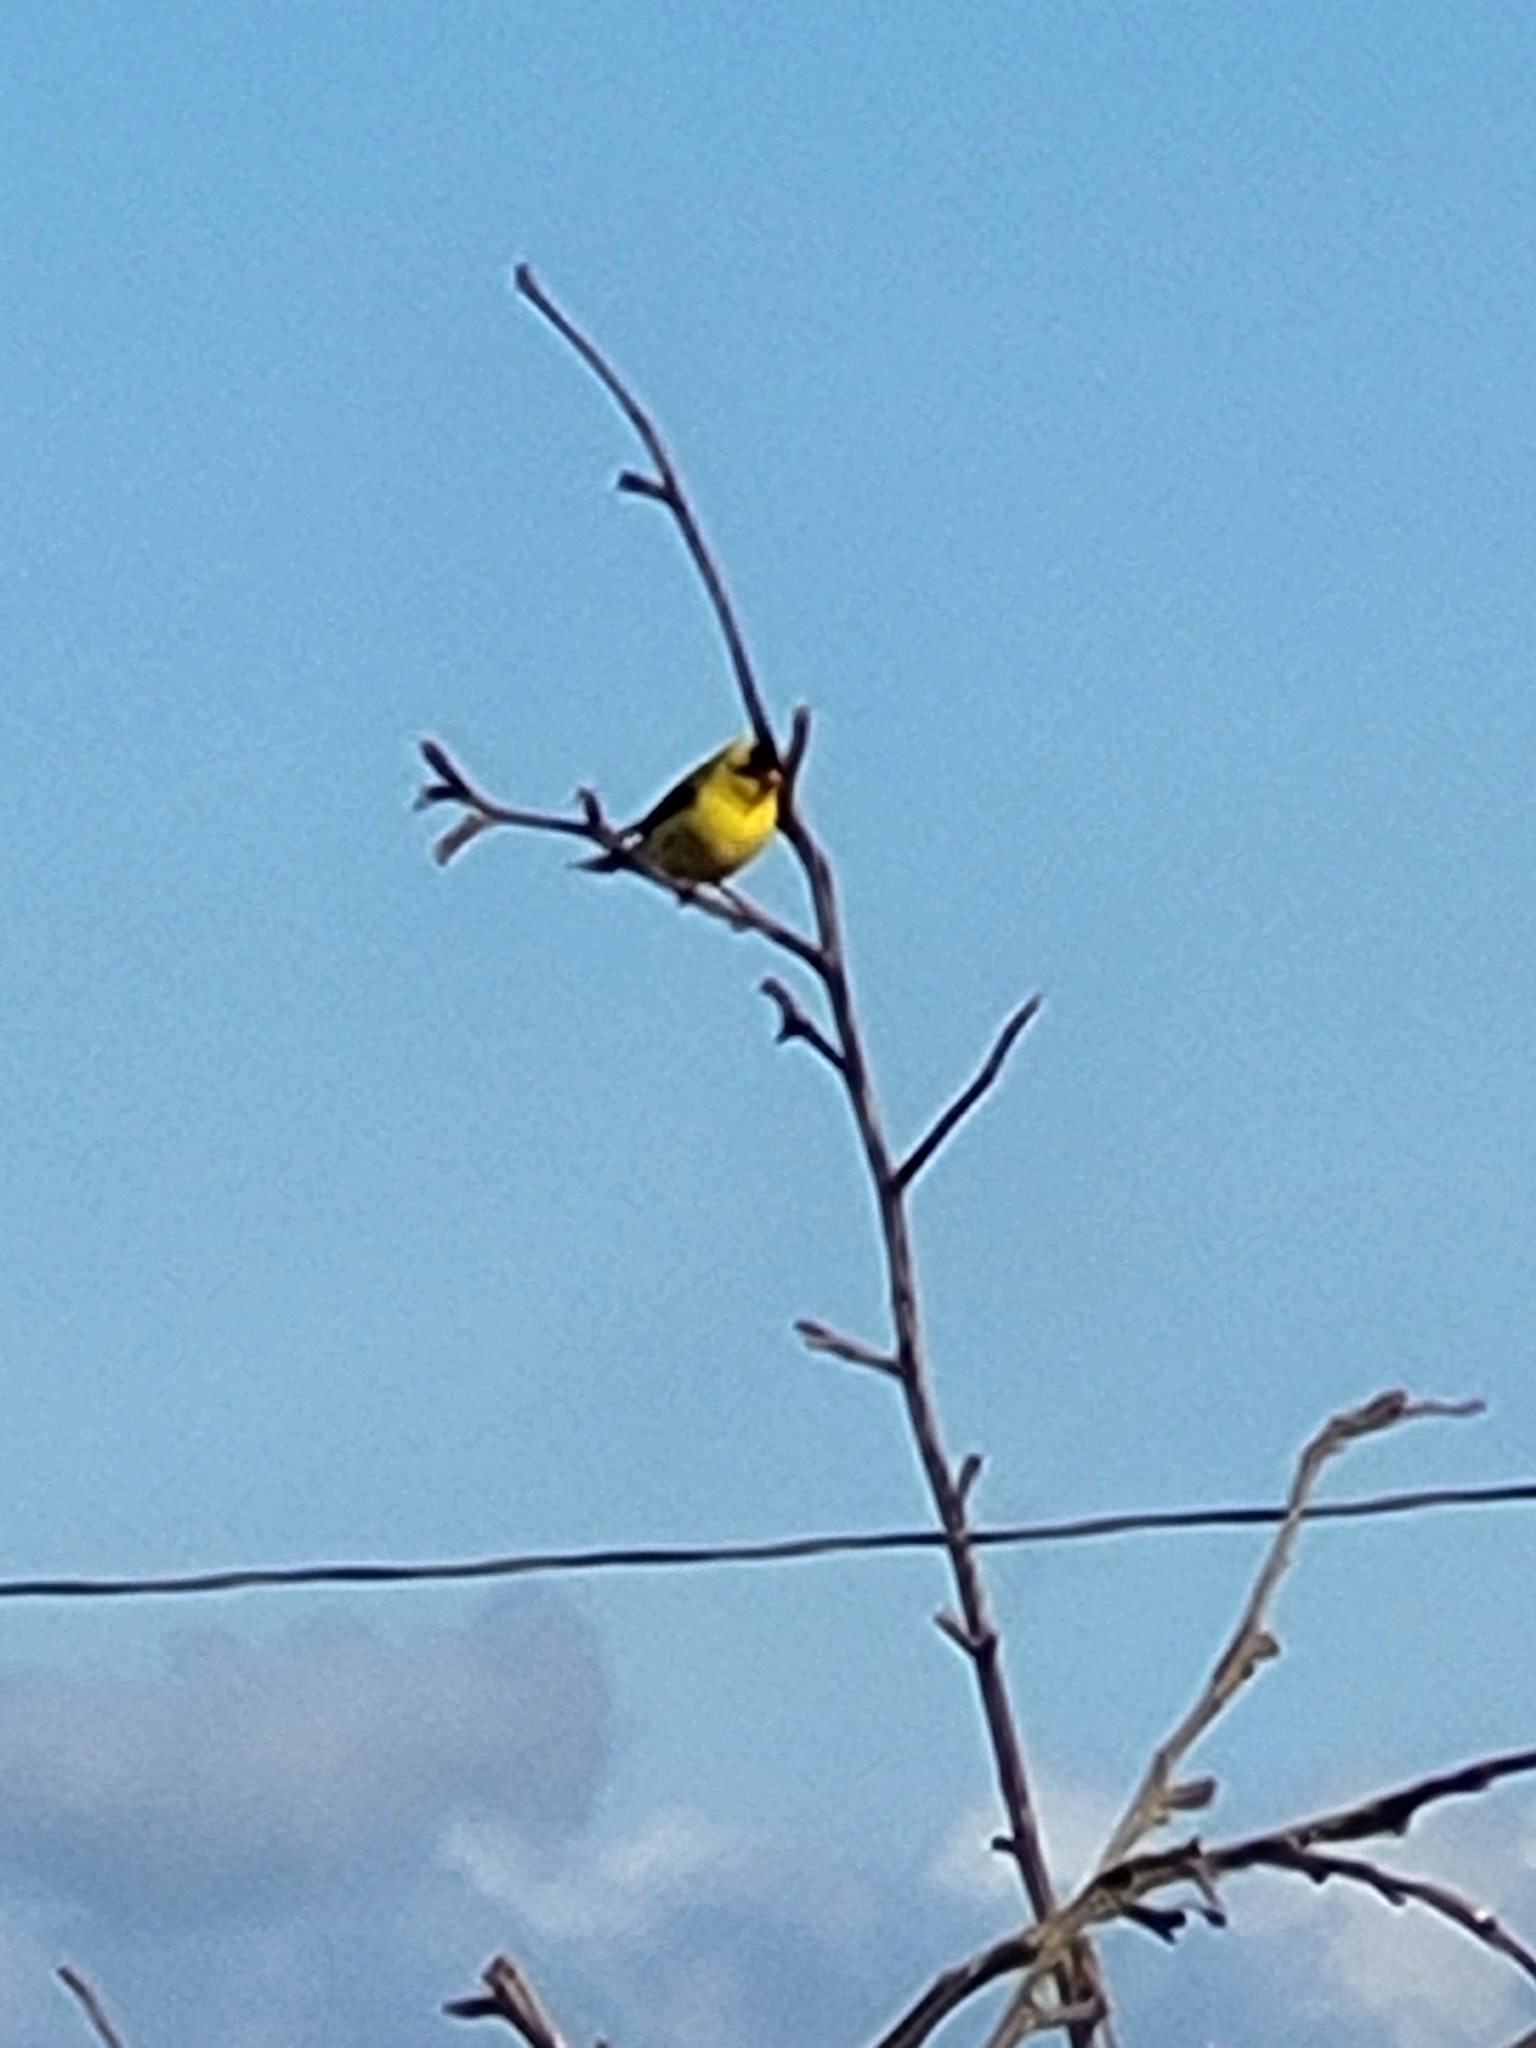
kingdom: Animalia
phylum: Chordata
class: Aves
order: Passeriformes
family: Fringillidae
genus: Spinus
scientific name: Spinus tristis
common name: American goldfinch
